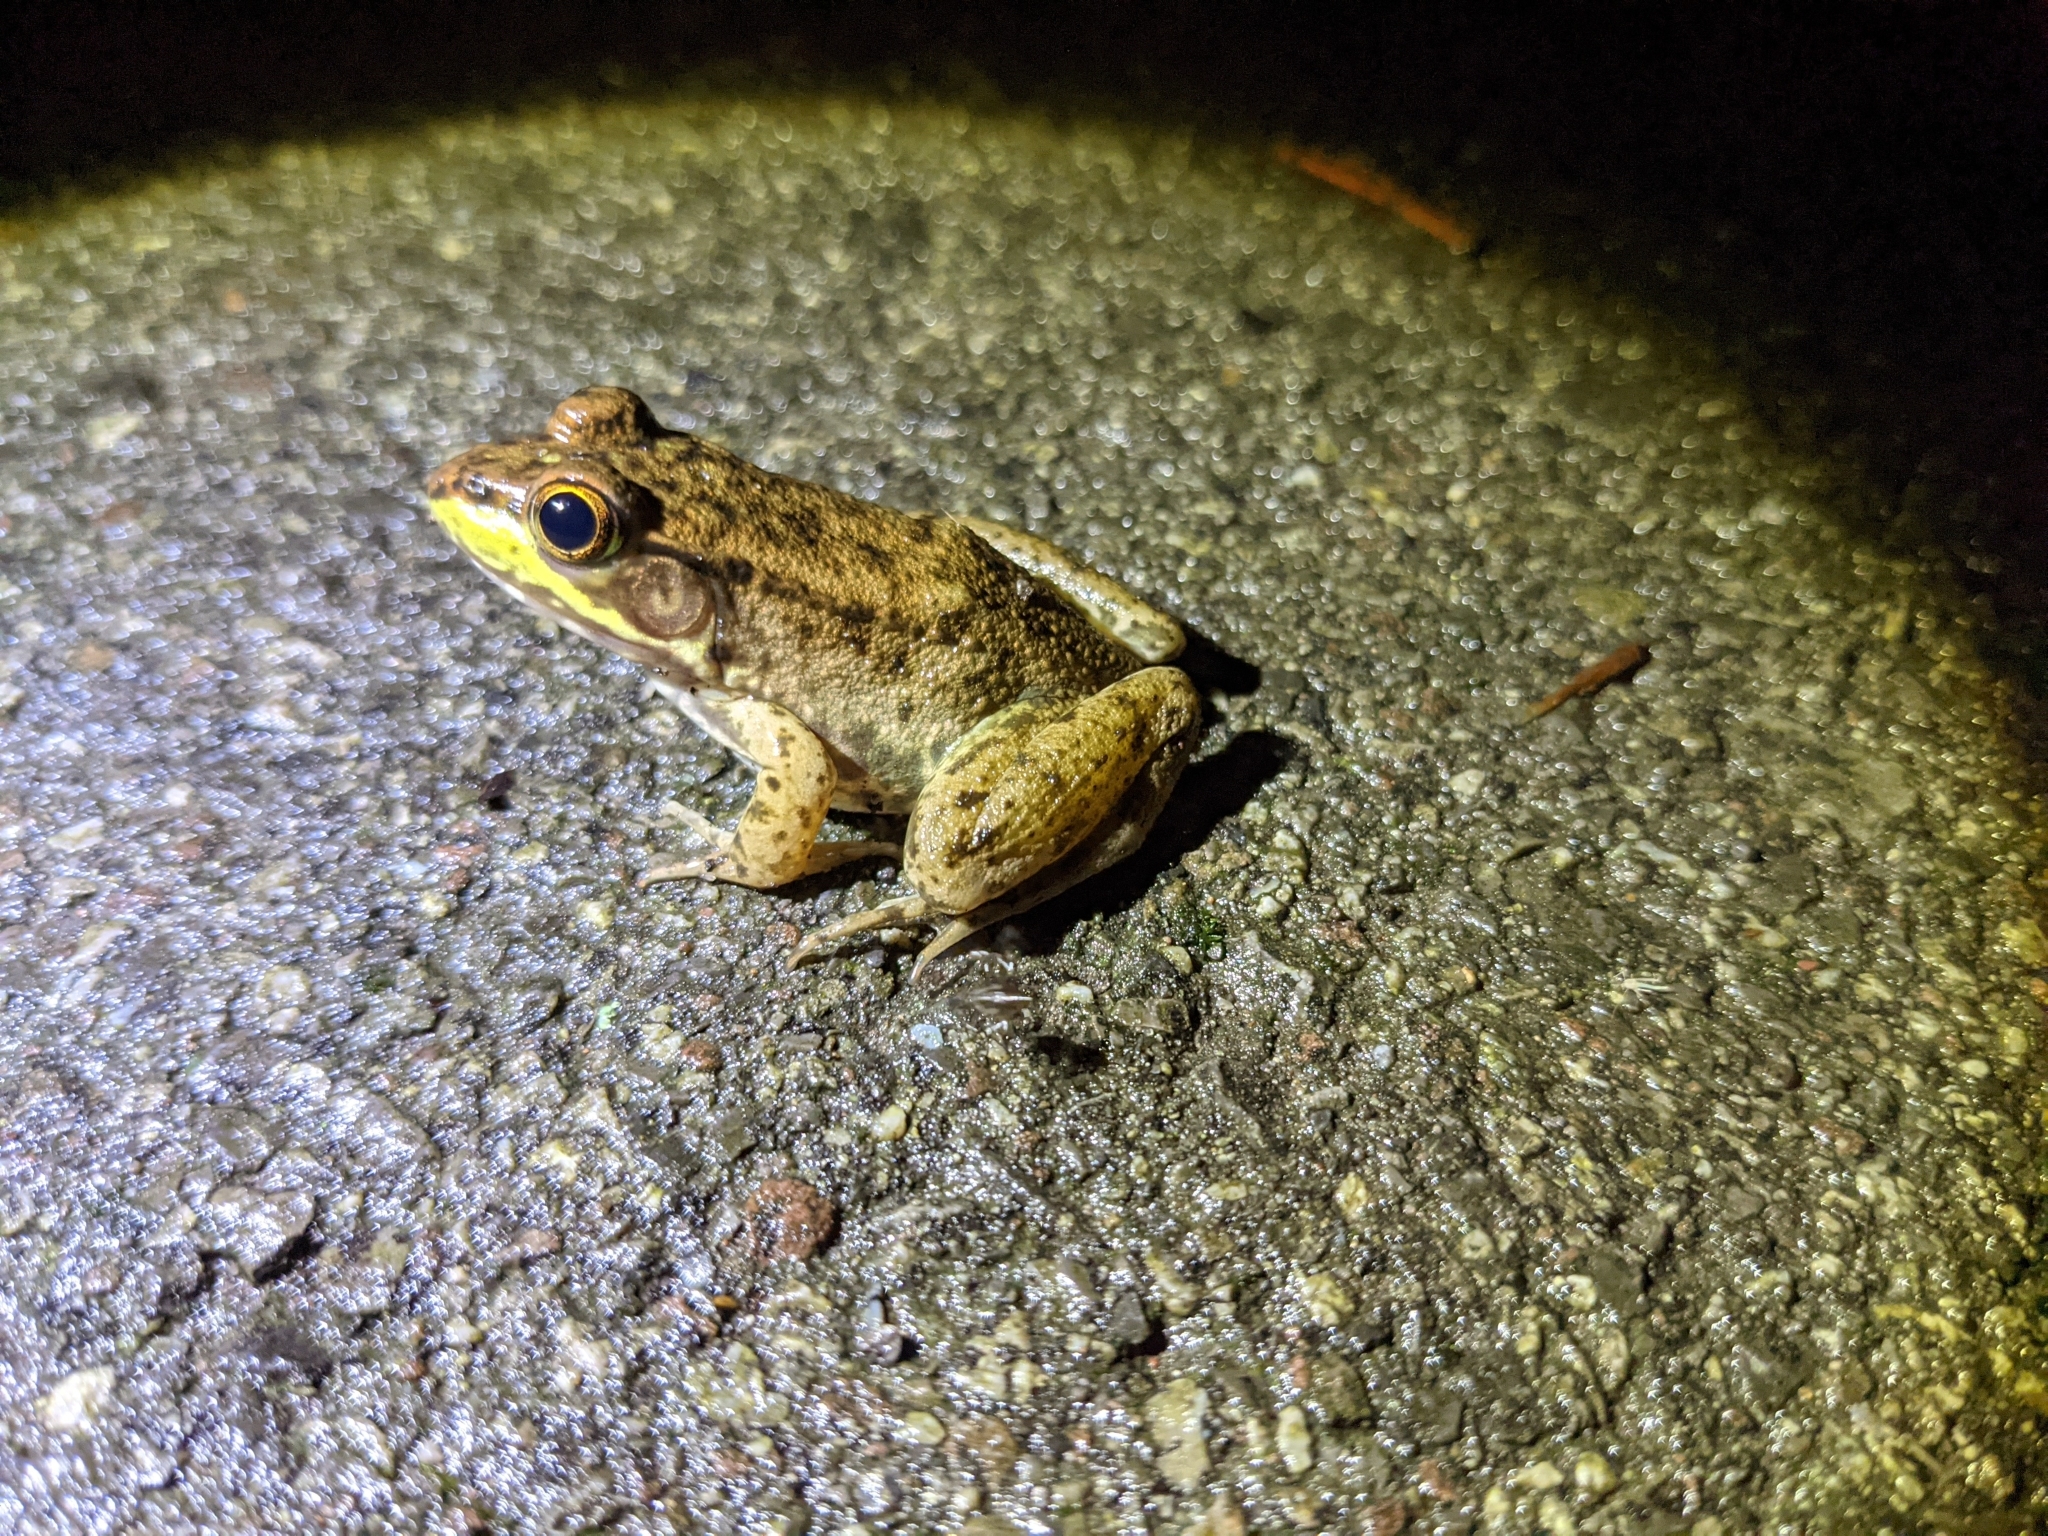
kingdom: Animalia
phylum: Chordata
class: Amphibia
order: Anura
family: Ranidae
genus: Lithobates
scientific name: Lithobates clamitans
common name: Green frog
